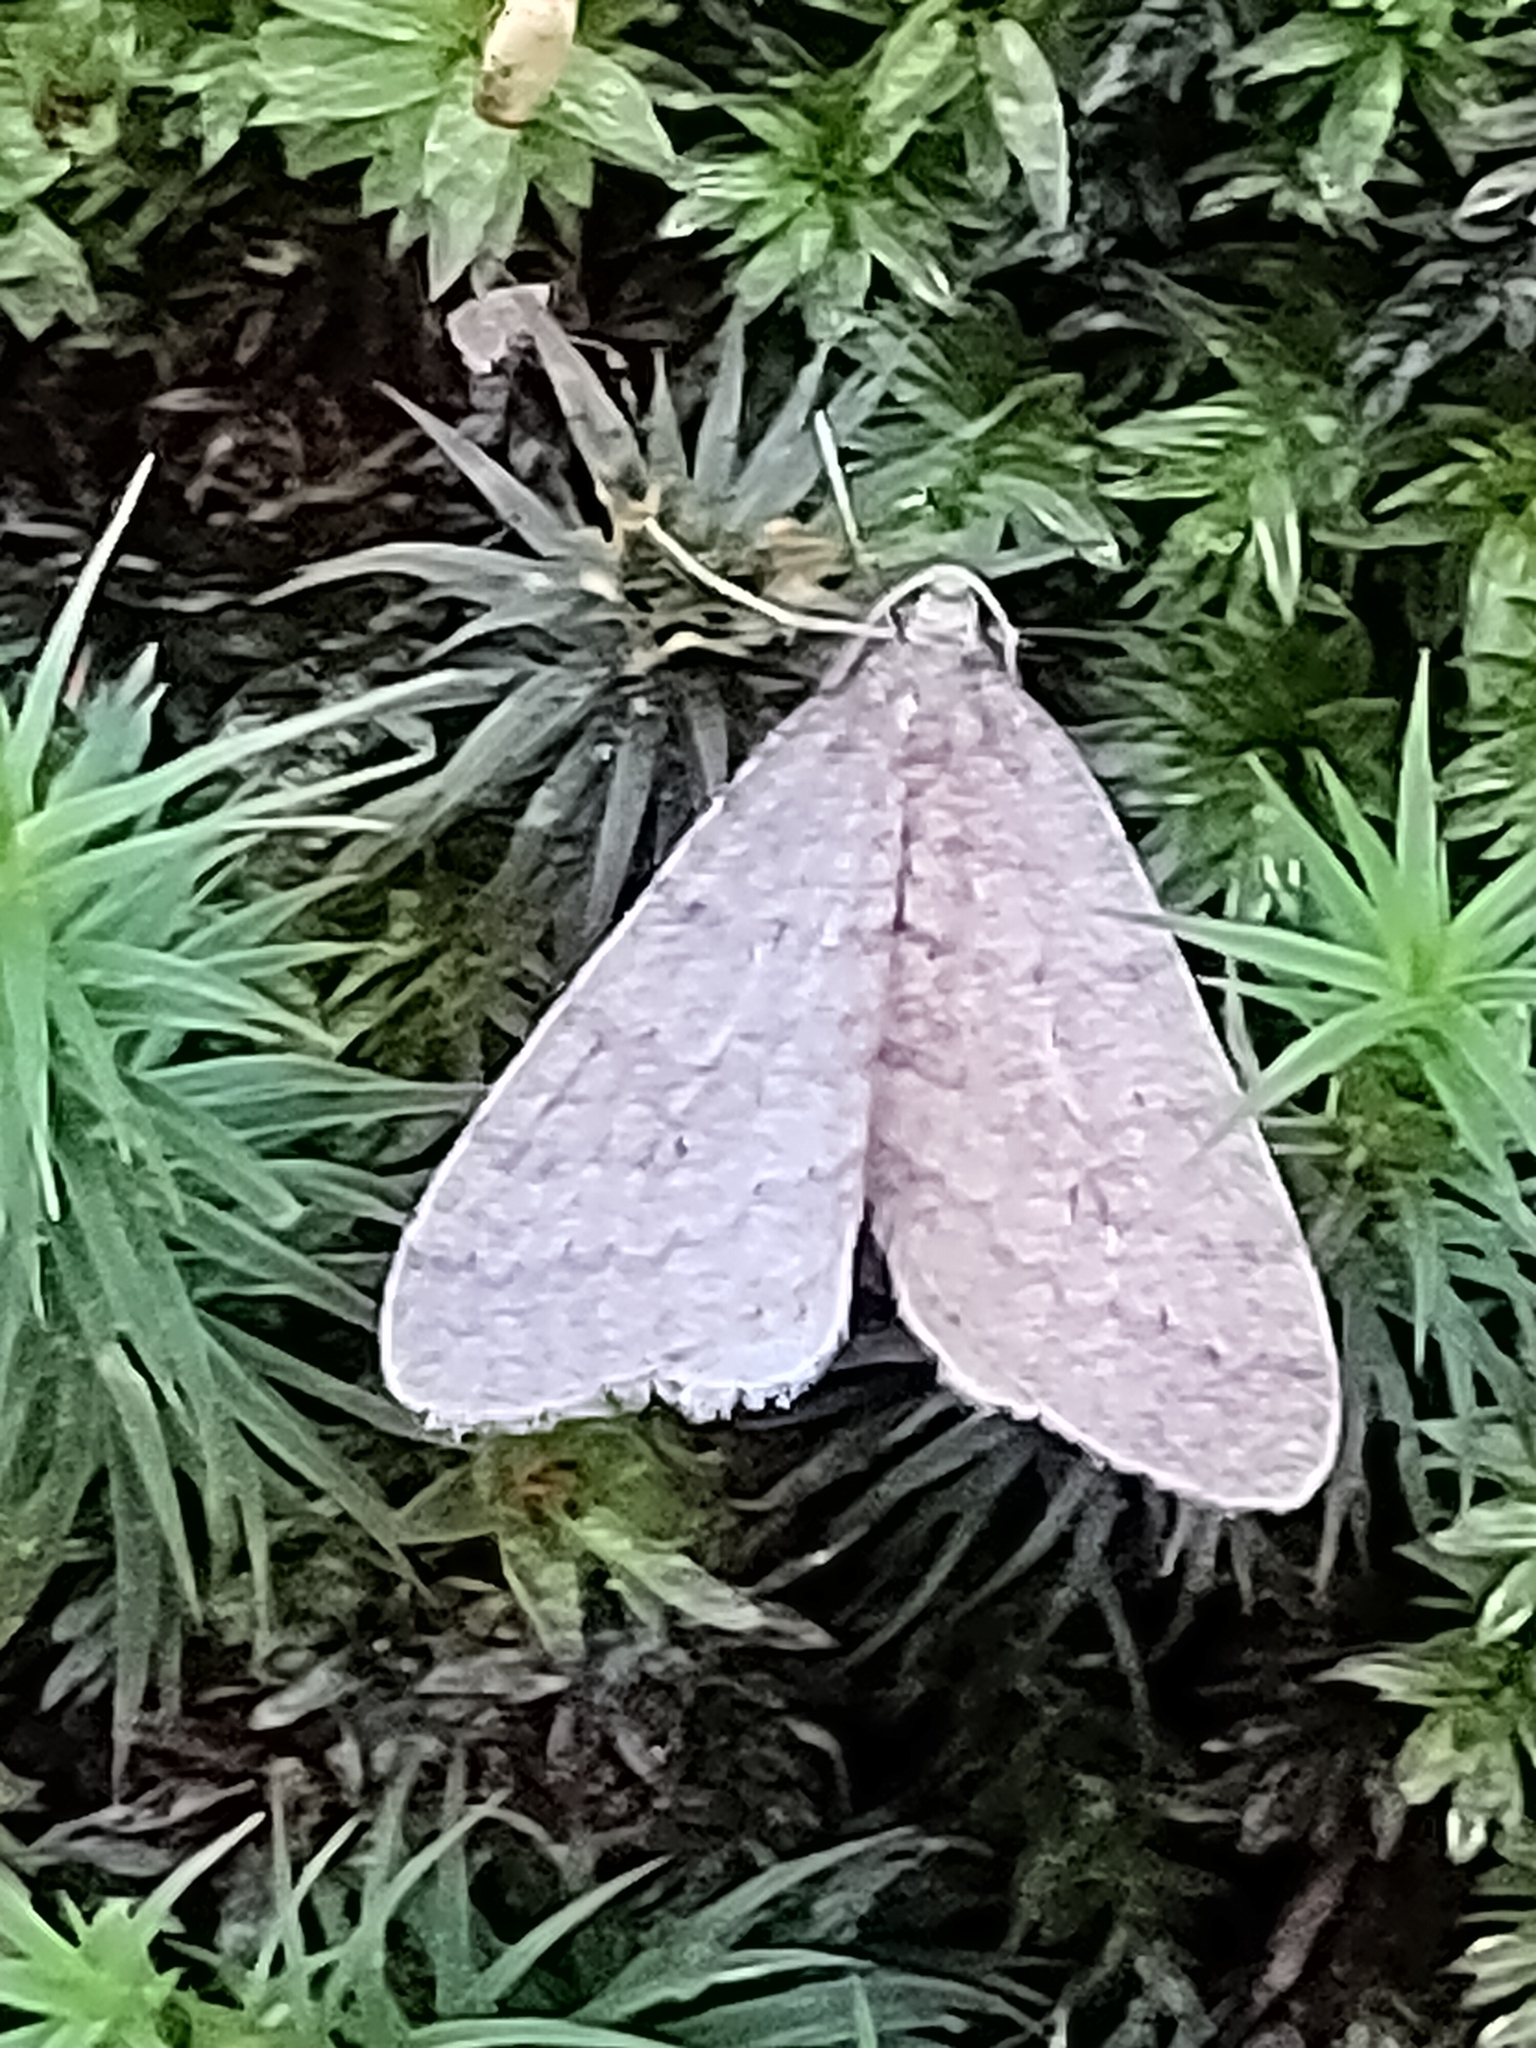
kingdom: Animalia
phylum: Arthropoda
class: Insecta
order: Lepidoptera
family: Geometridae
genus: Operophtera
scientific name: Operophtera brumata
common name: Winter moth
